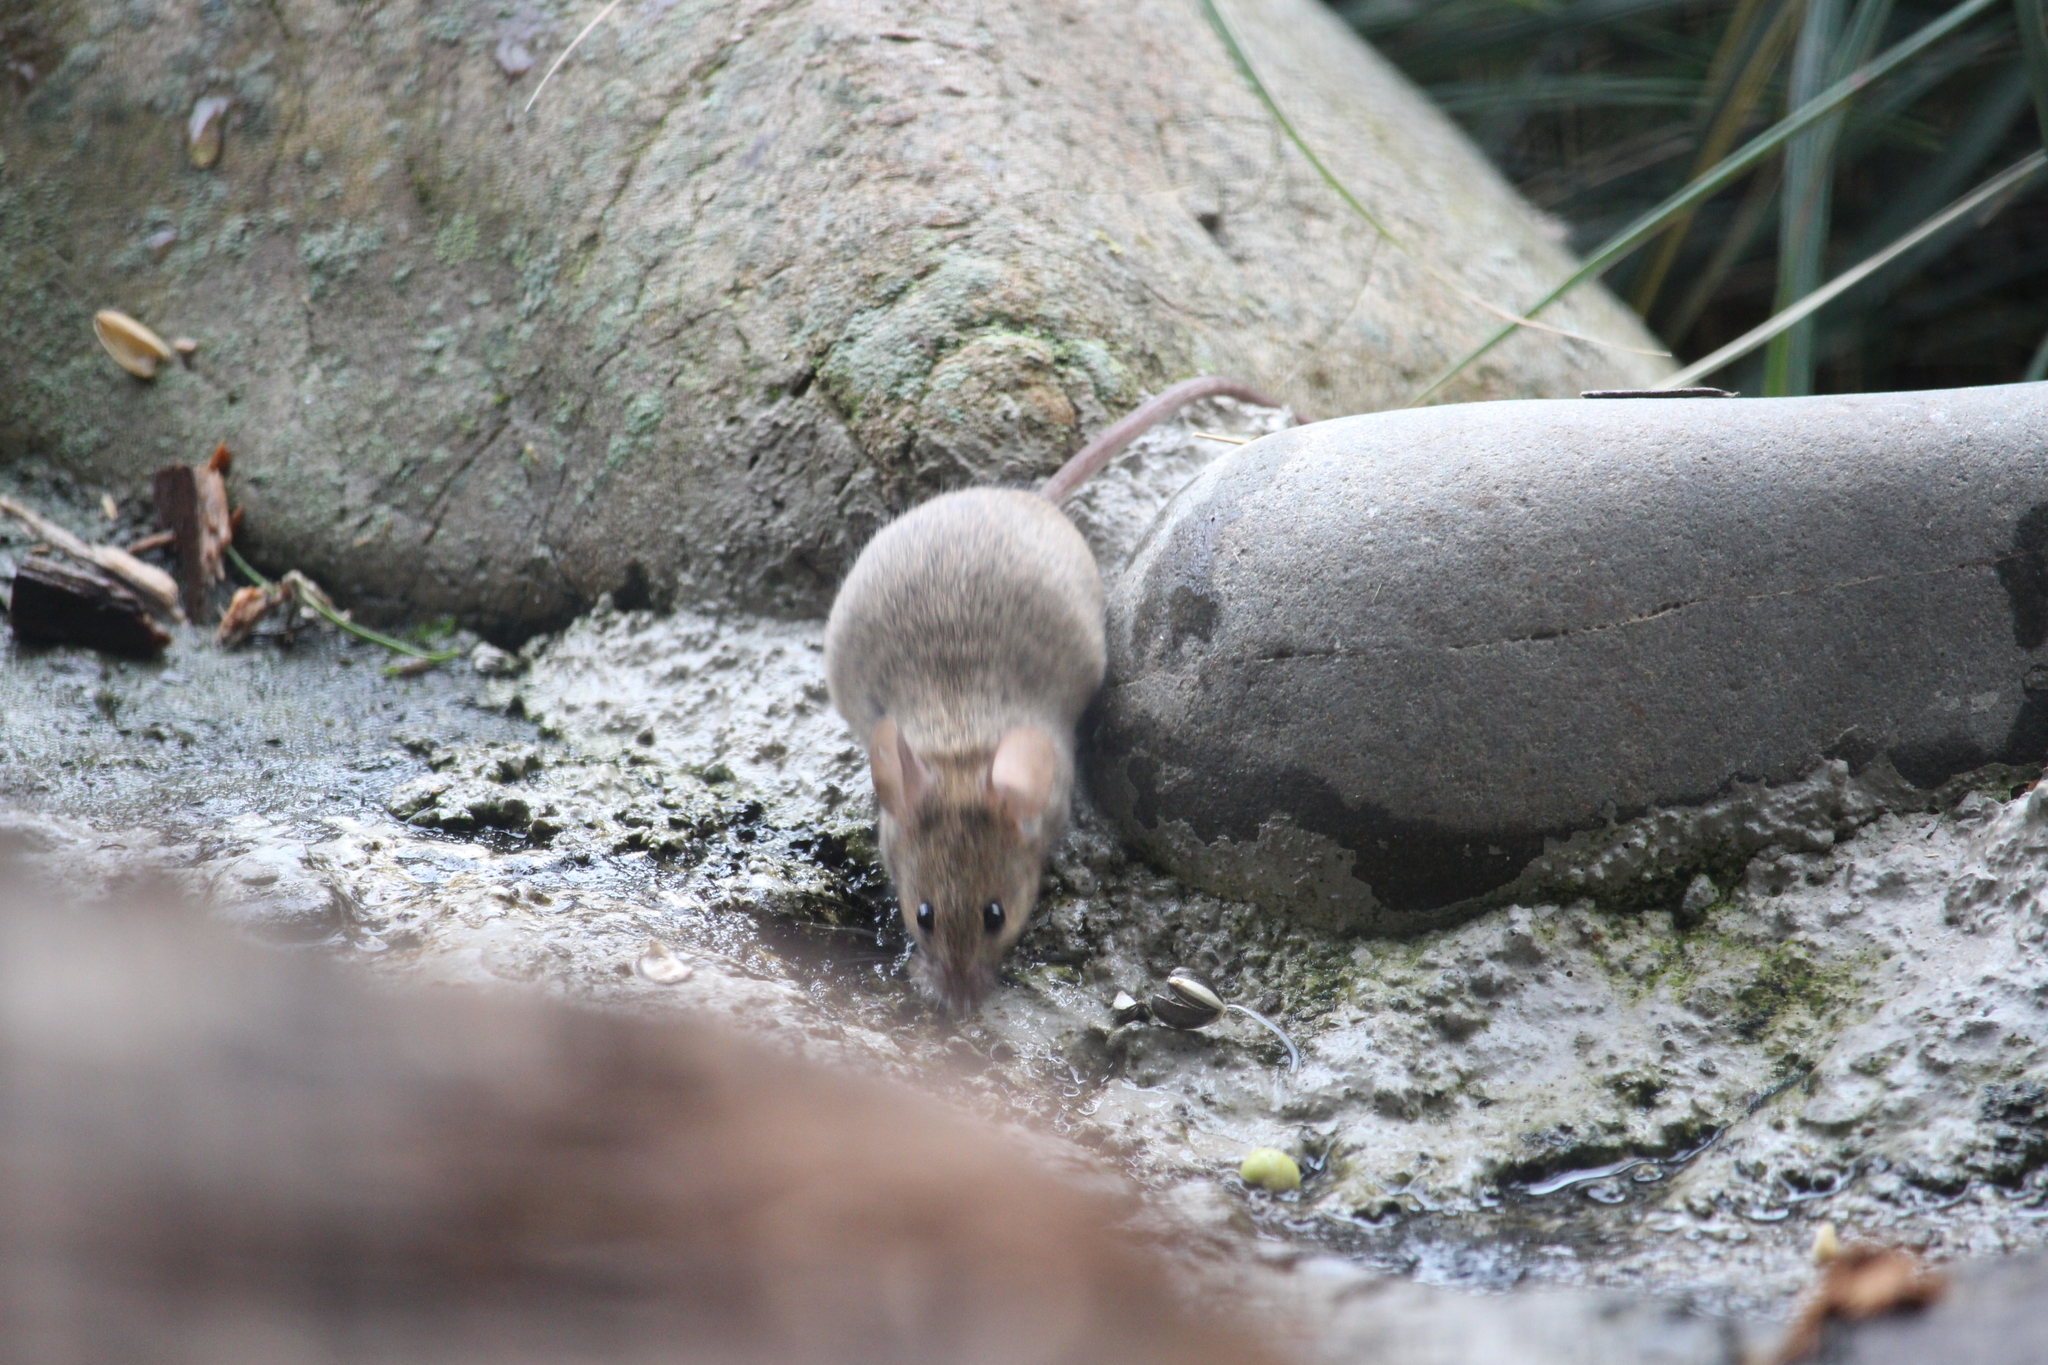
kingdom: Animalia
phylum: Chordata
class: Mammalia
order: Rodentia
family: Muridae
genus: Mus
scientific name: Mus musculus
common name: House mouse
